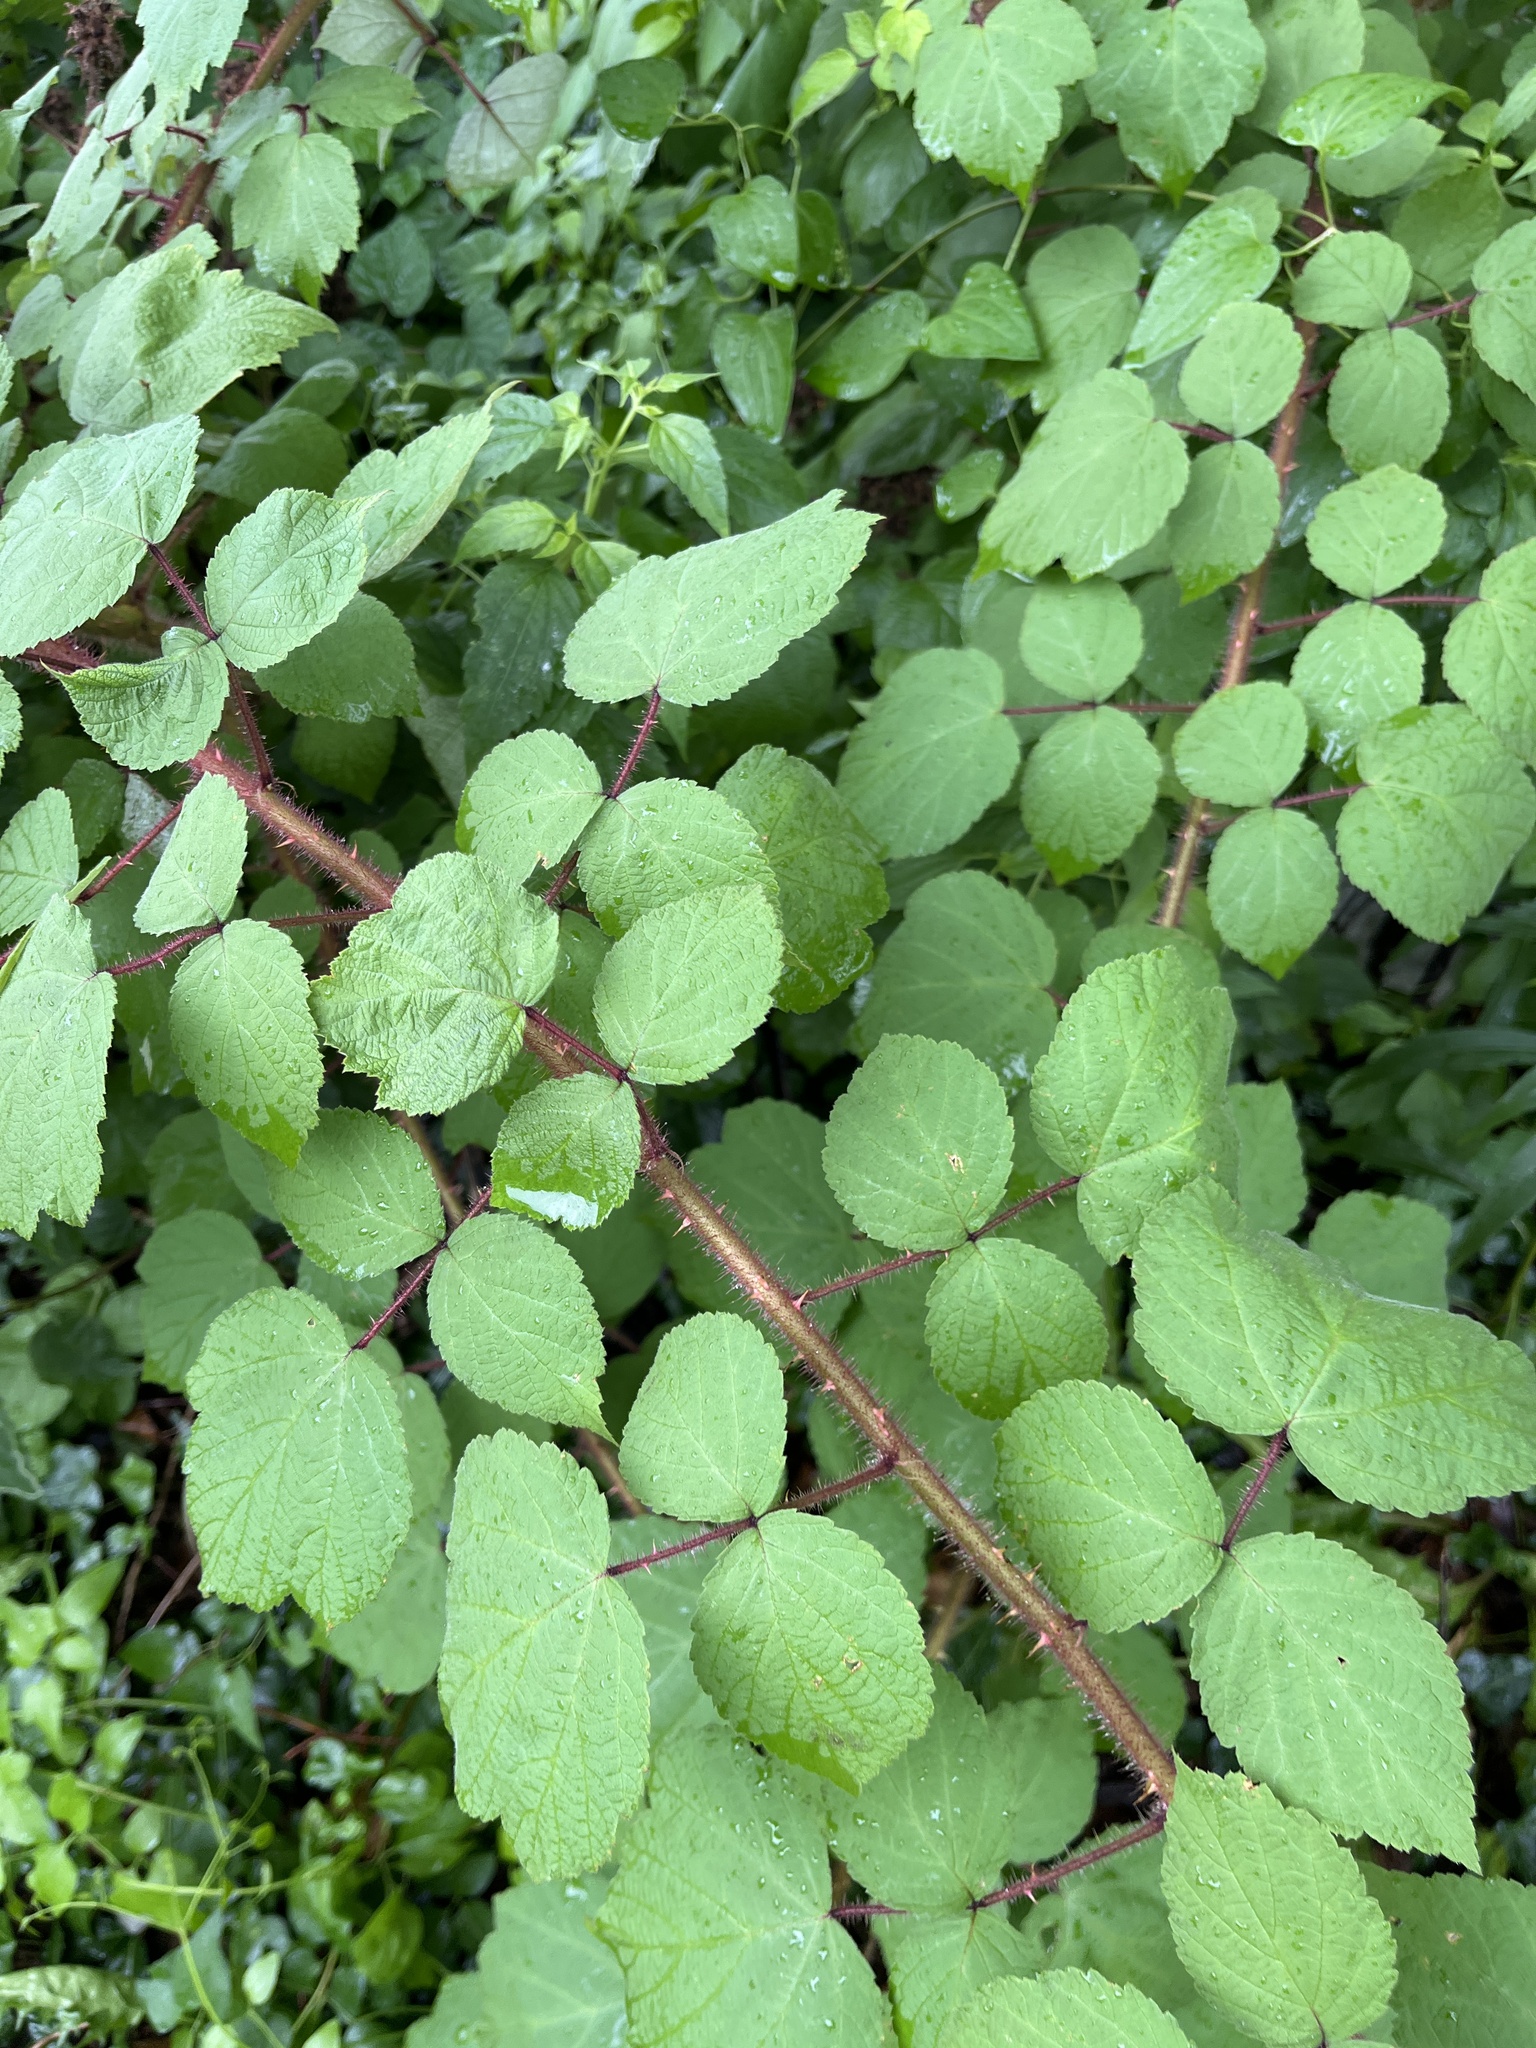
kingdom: Plantae
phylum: Tracheophyta
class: Magnoliopsida
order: Rosales
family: Rosaceae
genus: Rubus
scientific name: Rubus phoenicolasius
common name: Japanese wineberry
